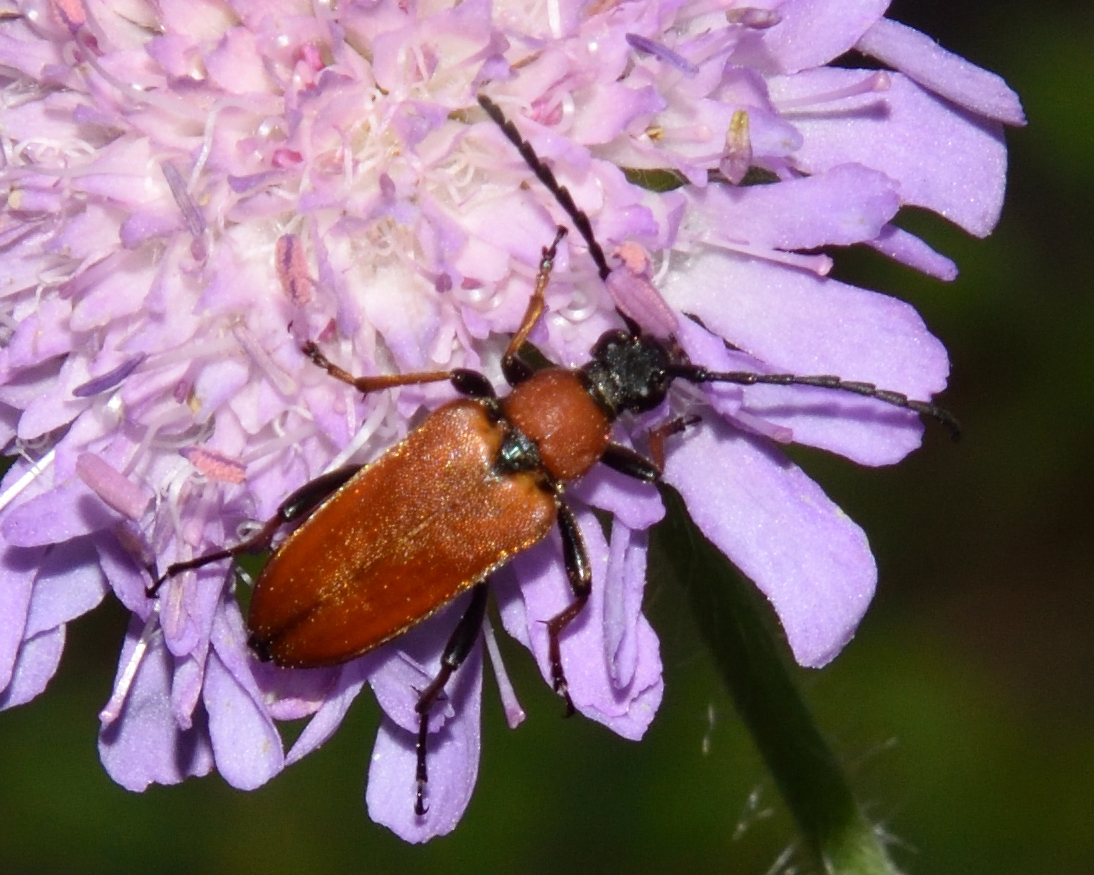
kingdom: Animalia
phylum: Arthropoda
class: Insecta
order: Coleoptera
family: Cerambycidae
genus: Stictoleptura
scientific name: Stictoleptura rubra
